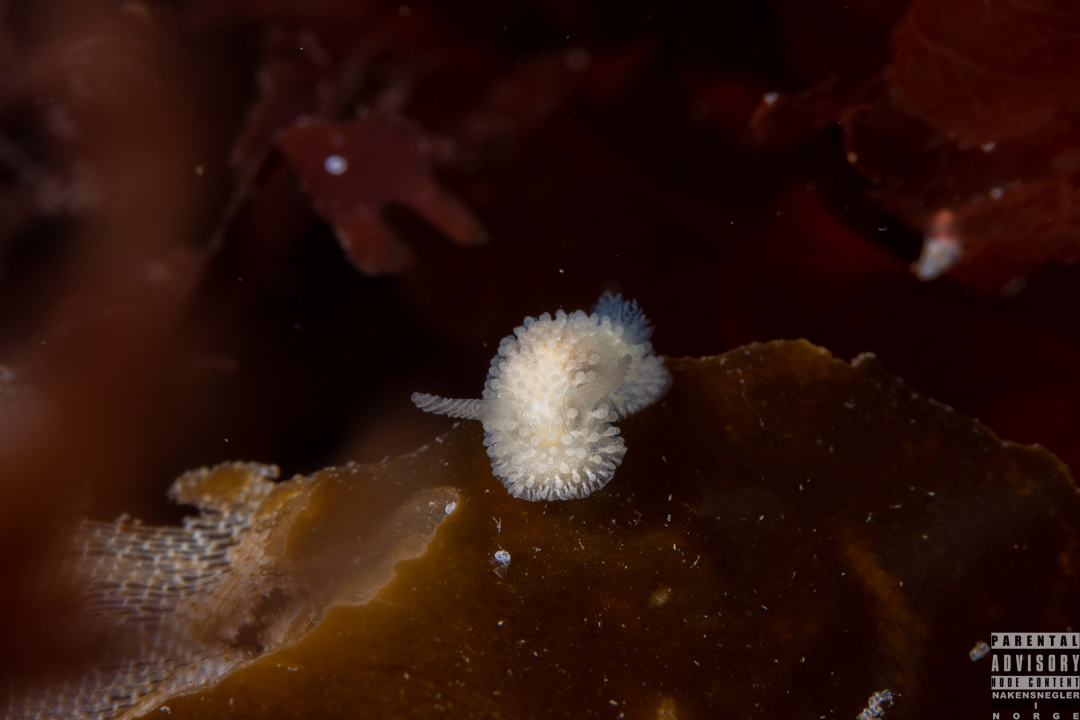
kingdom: Animalia
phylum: Mollusca
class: Gastropoda
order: Nudibranchia
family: Onchidorididae
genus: Onchidoris
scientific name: Onchidoris muricata
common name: Rough doris
